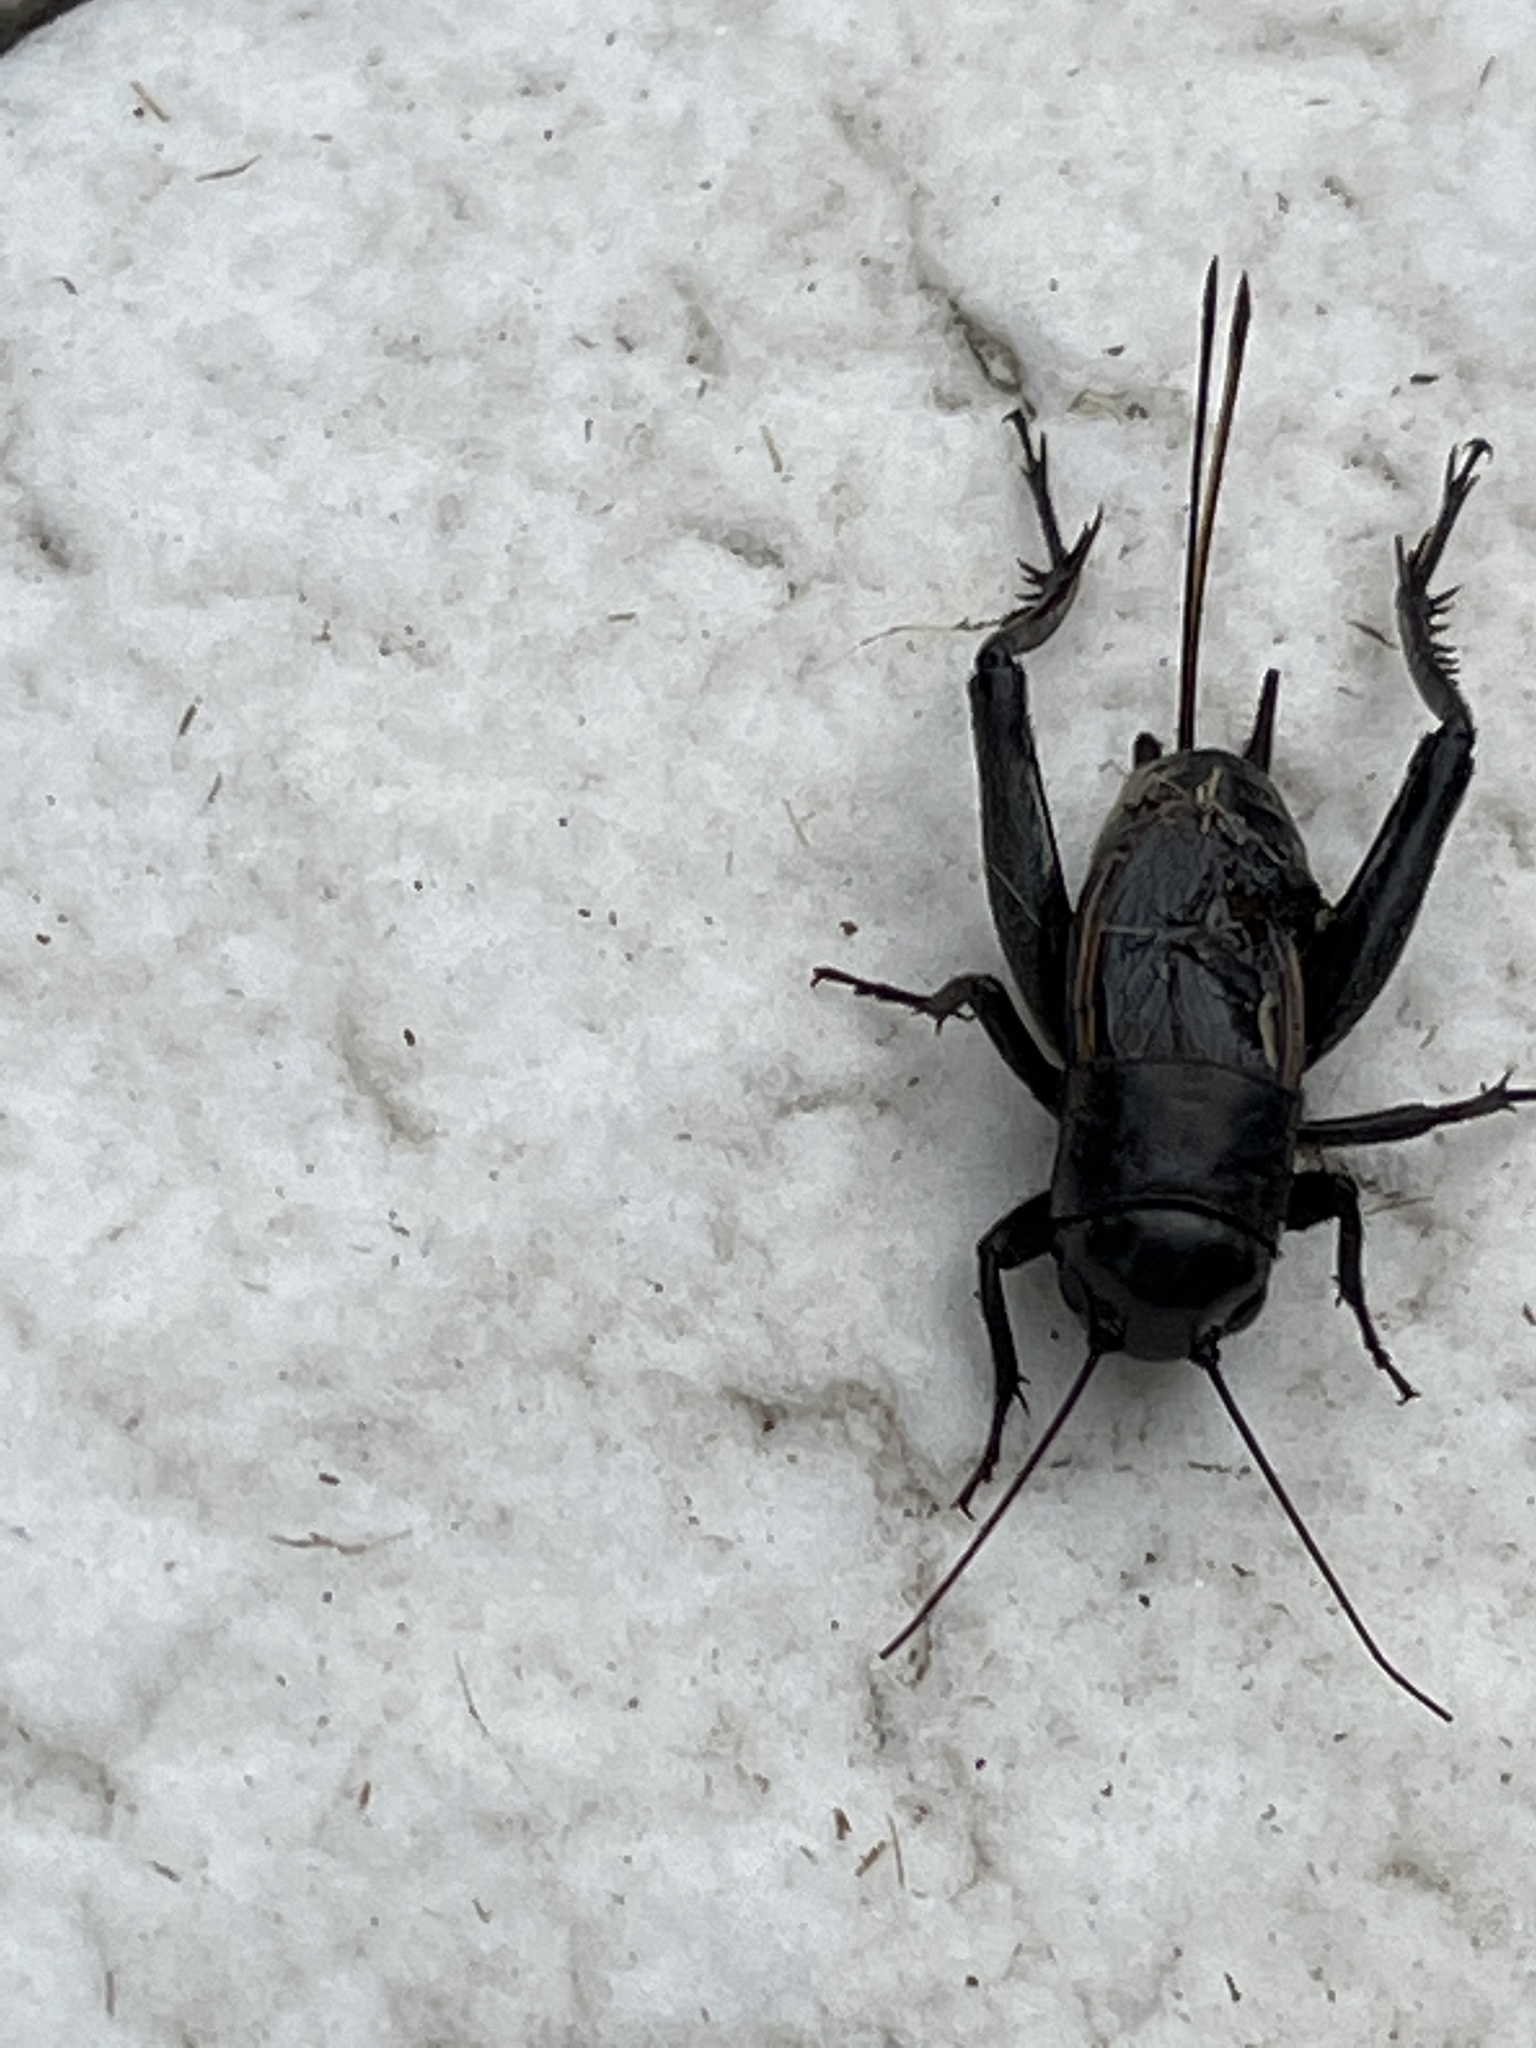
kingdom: Animalia
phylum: Arthropoda
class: Insecta
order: Orthoptera
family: Gryllidae
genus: Gryllus
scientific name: Gryllus pennsylvanicus
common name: Fall field cricket
